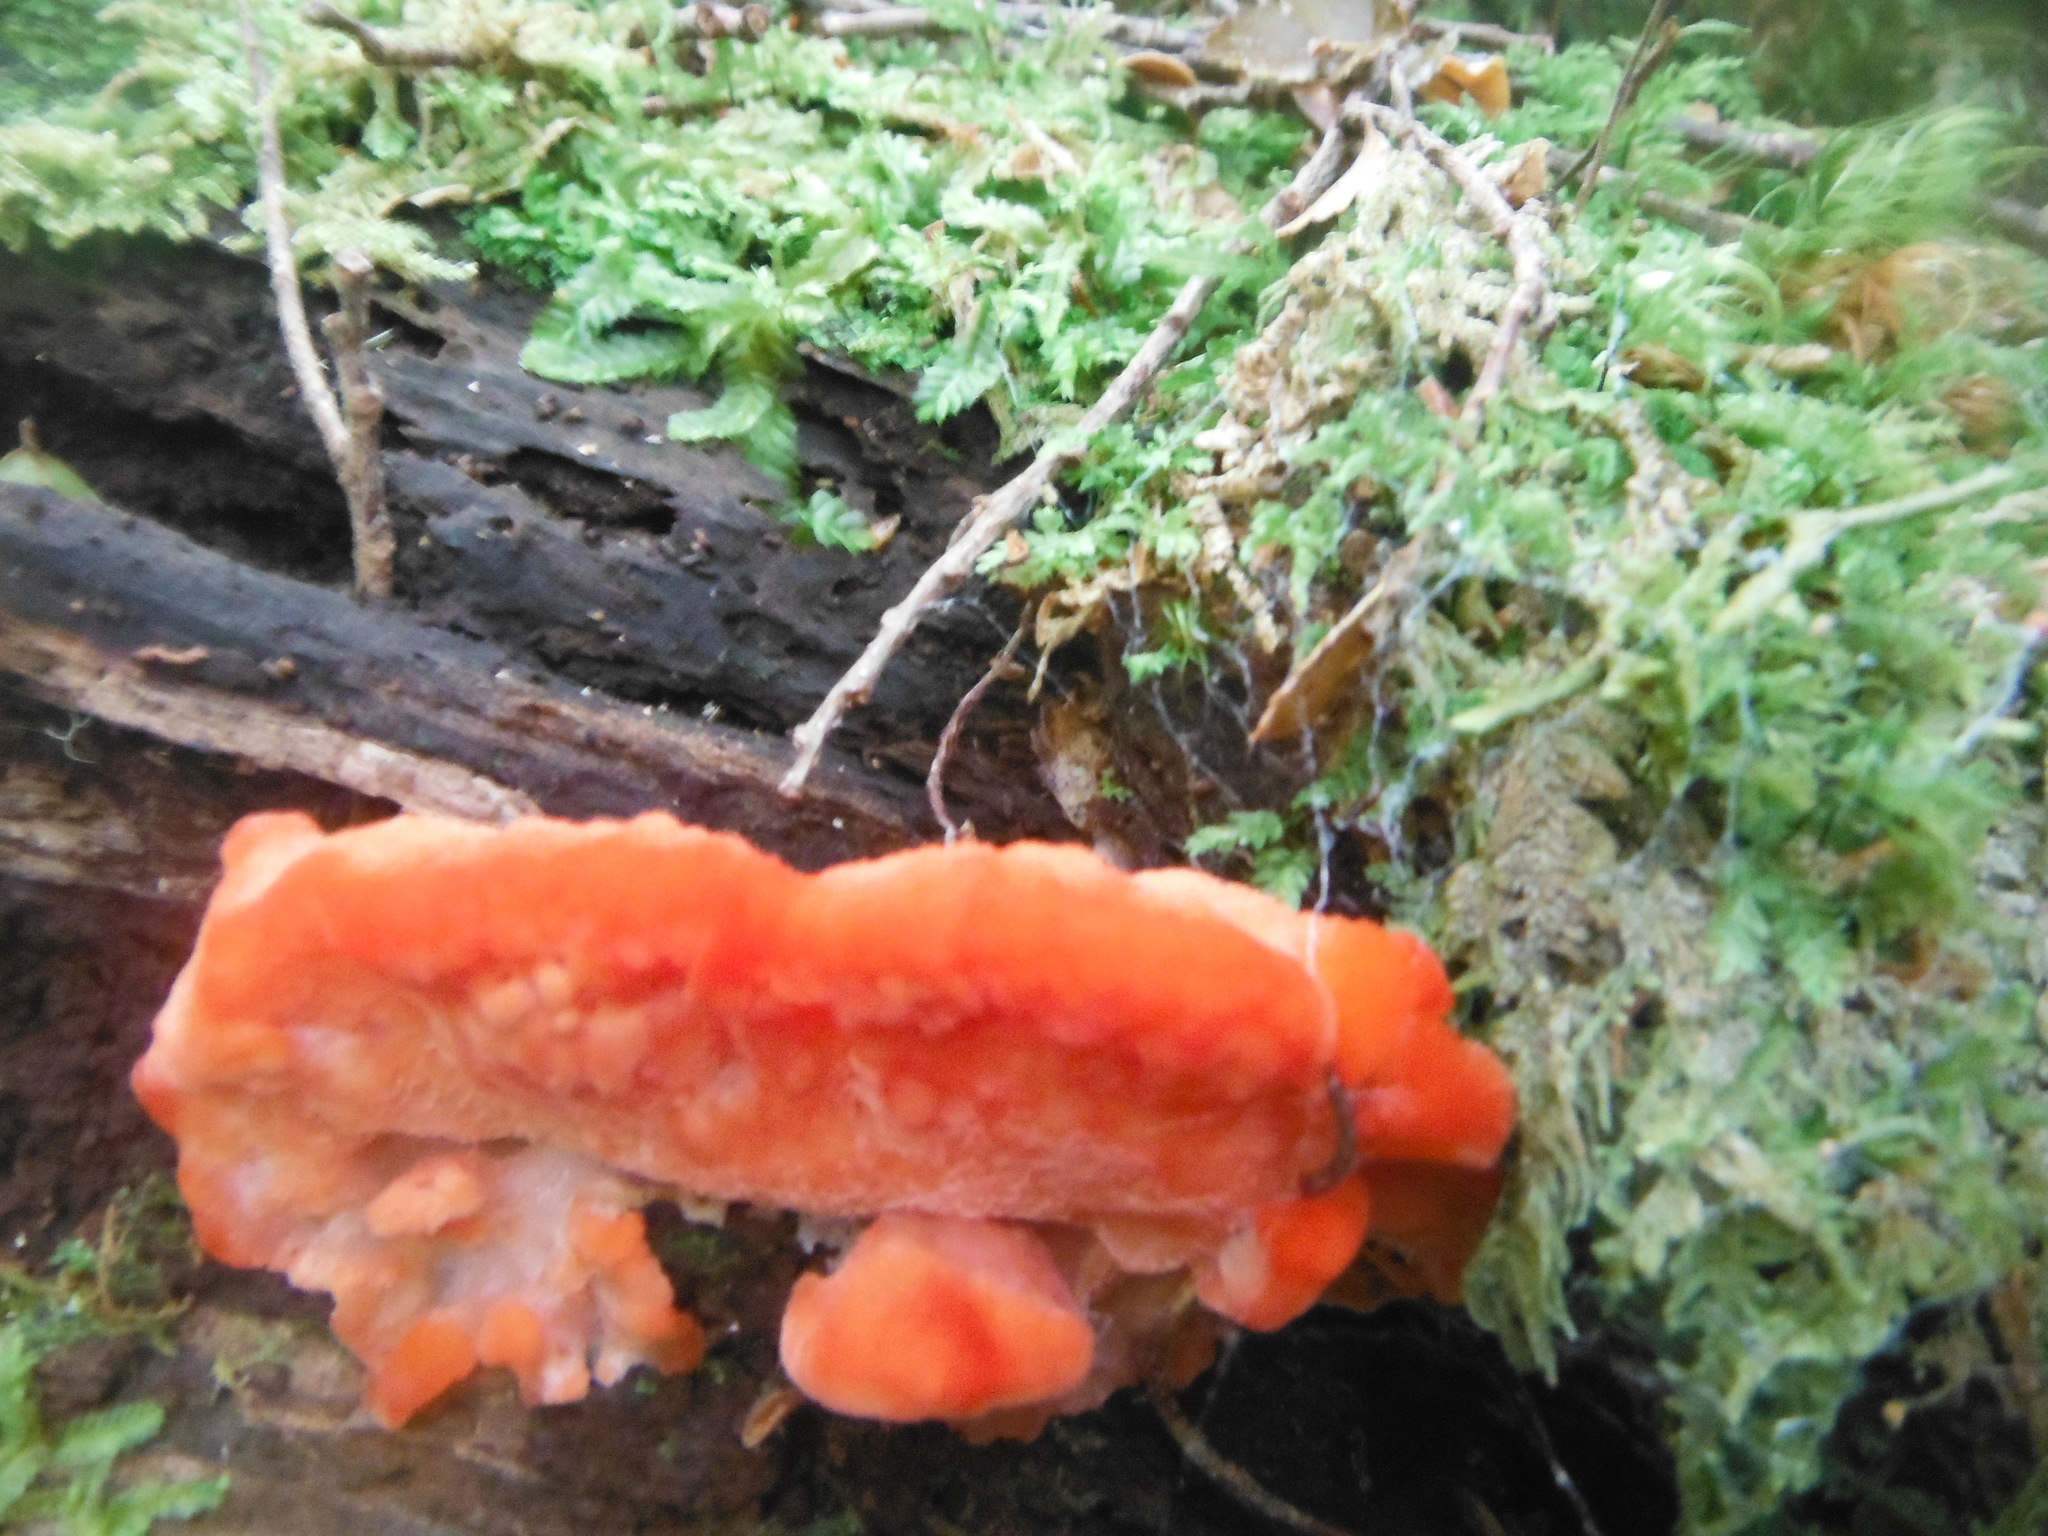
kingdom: Fungi
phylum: Basidiomycota
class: Agaricomycetes
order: Polyporales
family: Incrustoporiaceae
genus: Tyromyces
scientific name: Tyromyces pulcherrimus
